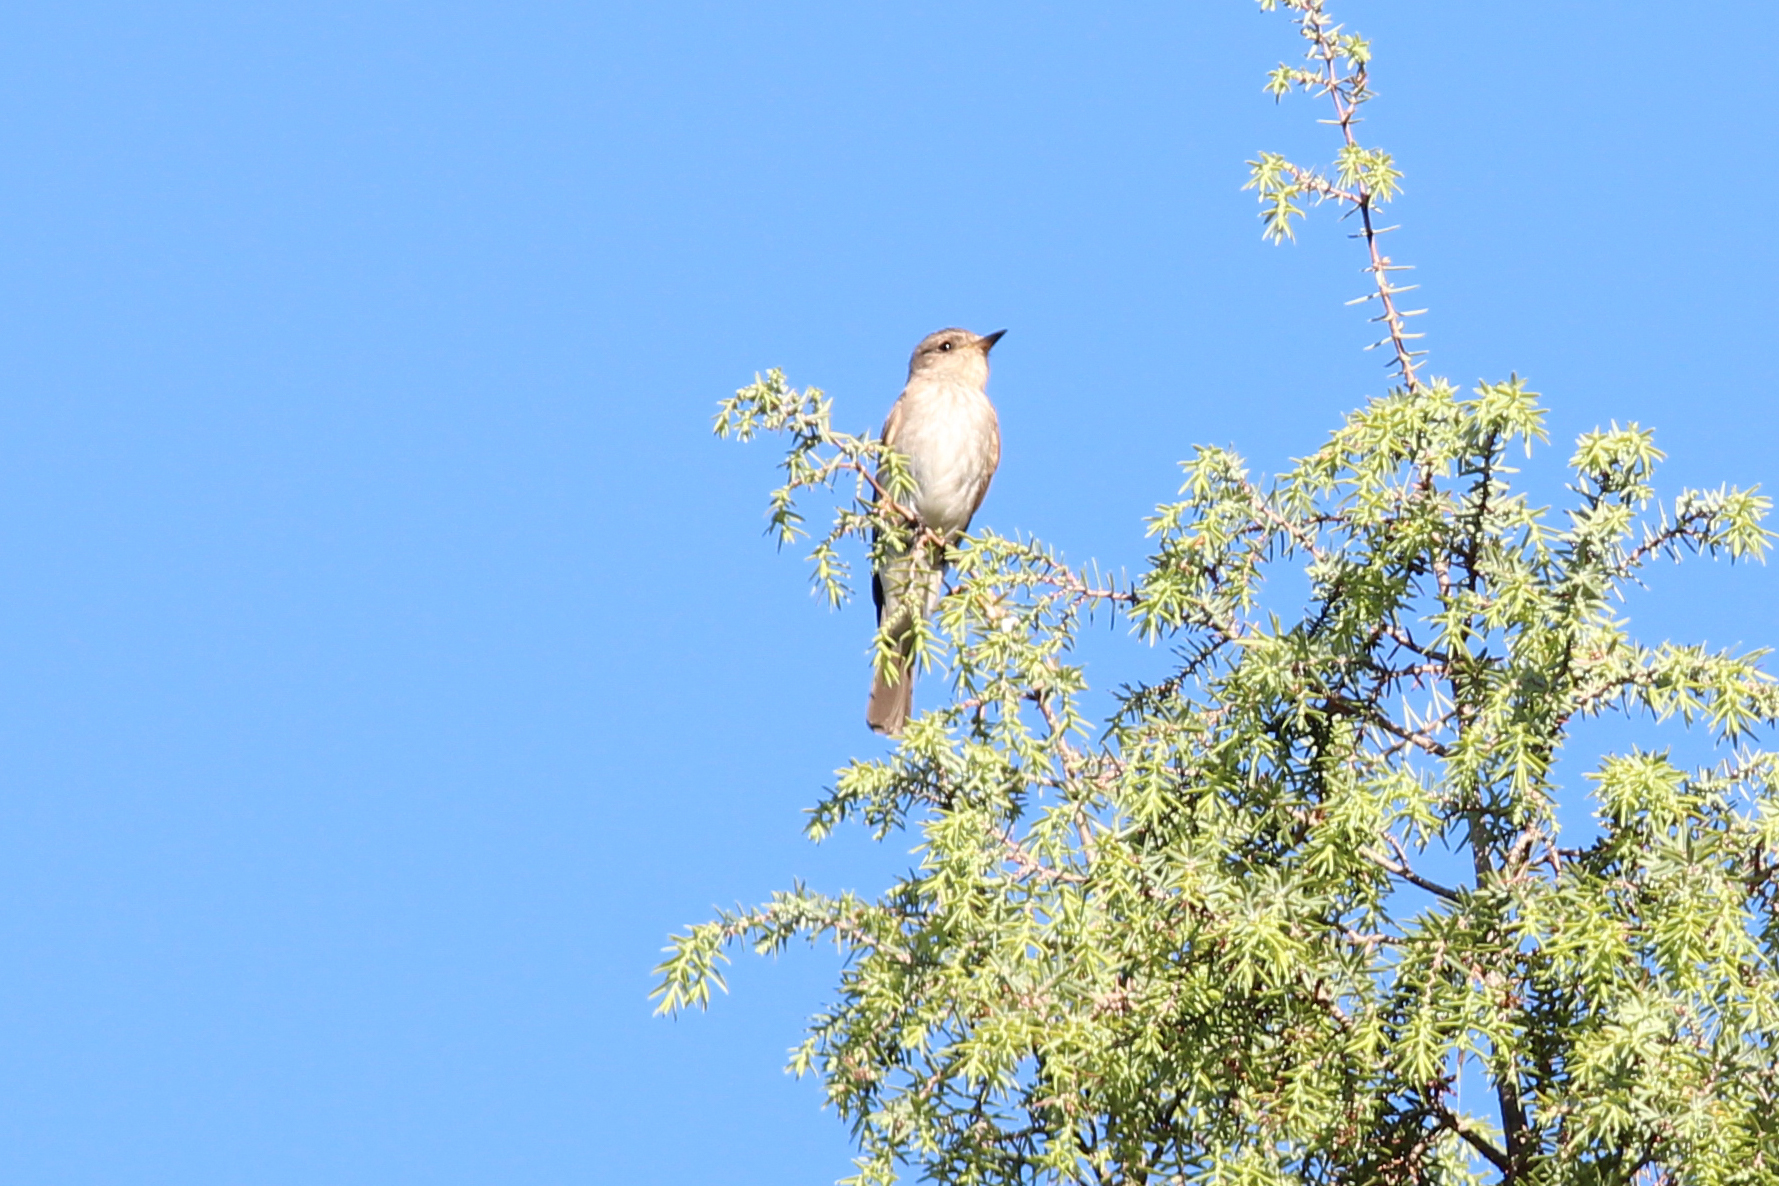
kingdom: Animalia
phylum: Chordata
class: Aves
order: Passeriformes
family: Muscicapidae
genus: Muscicapa
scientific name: Muscicapa striata
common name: Spotted flycatcher
